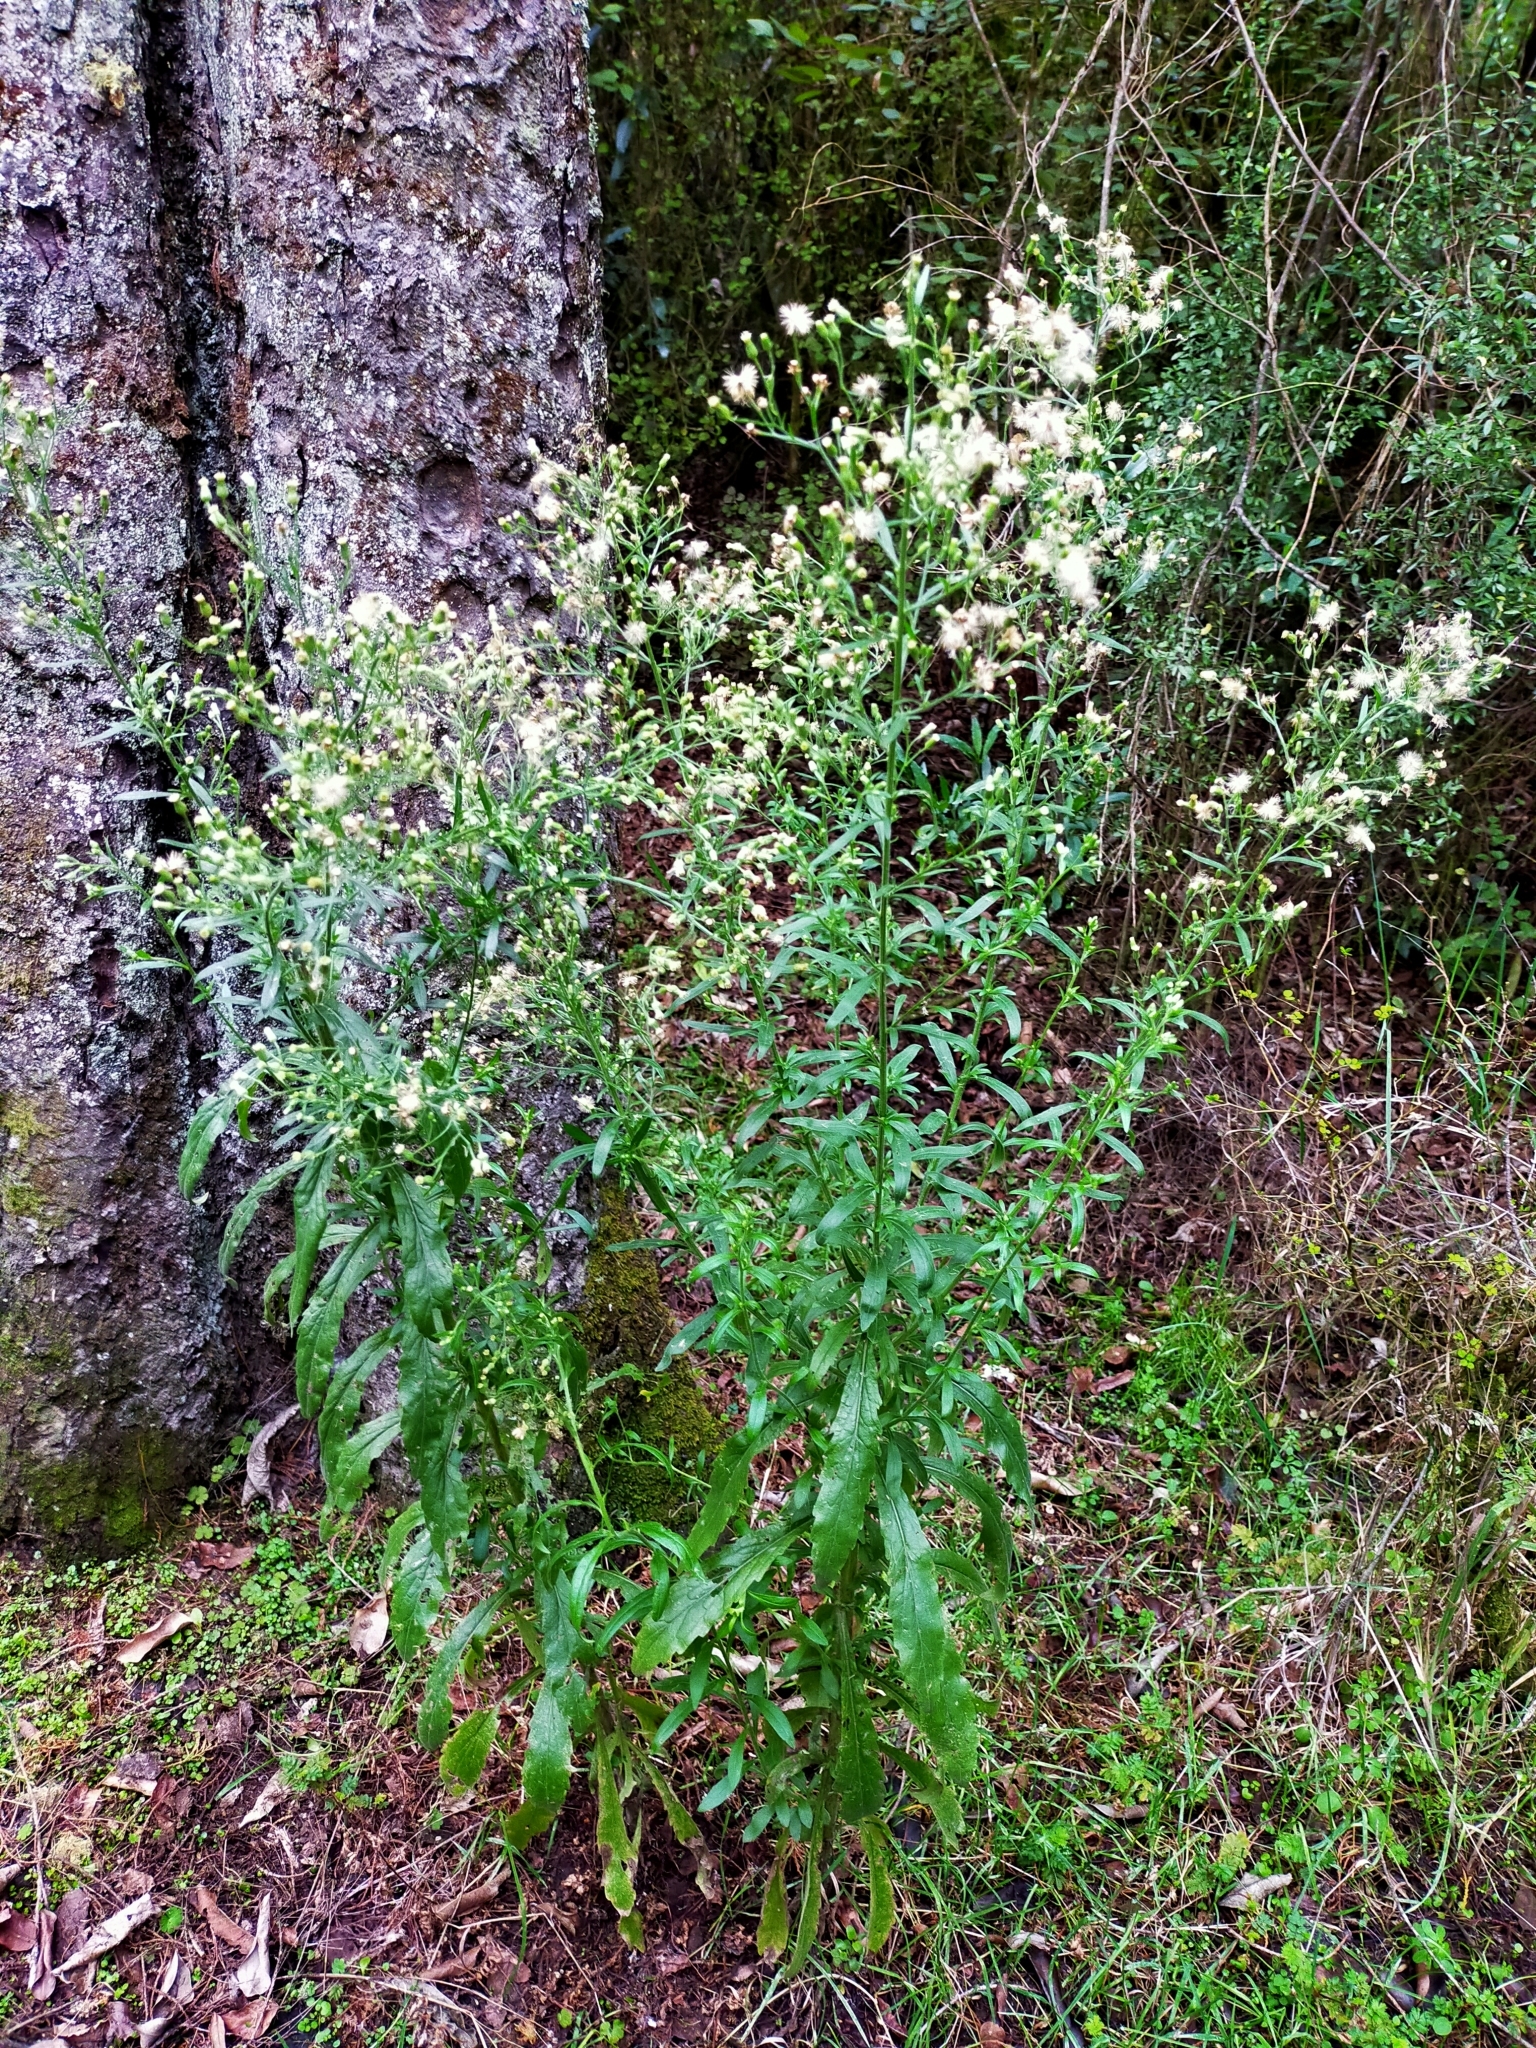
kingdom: Plantae
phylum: Tracheophyta
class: Magnoliopsida
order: Asterales
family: Asteraceae
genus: Erigeron
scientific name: Erigeron sumatrensis
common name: Daisy
